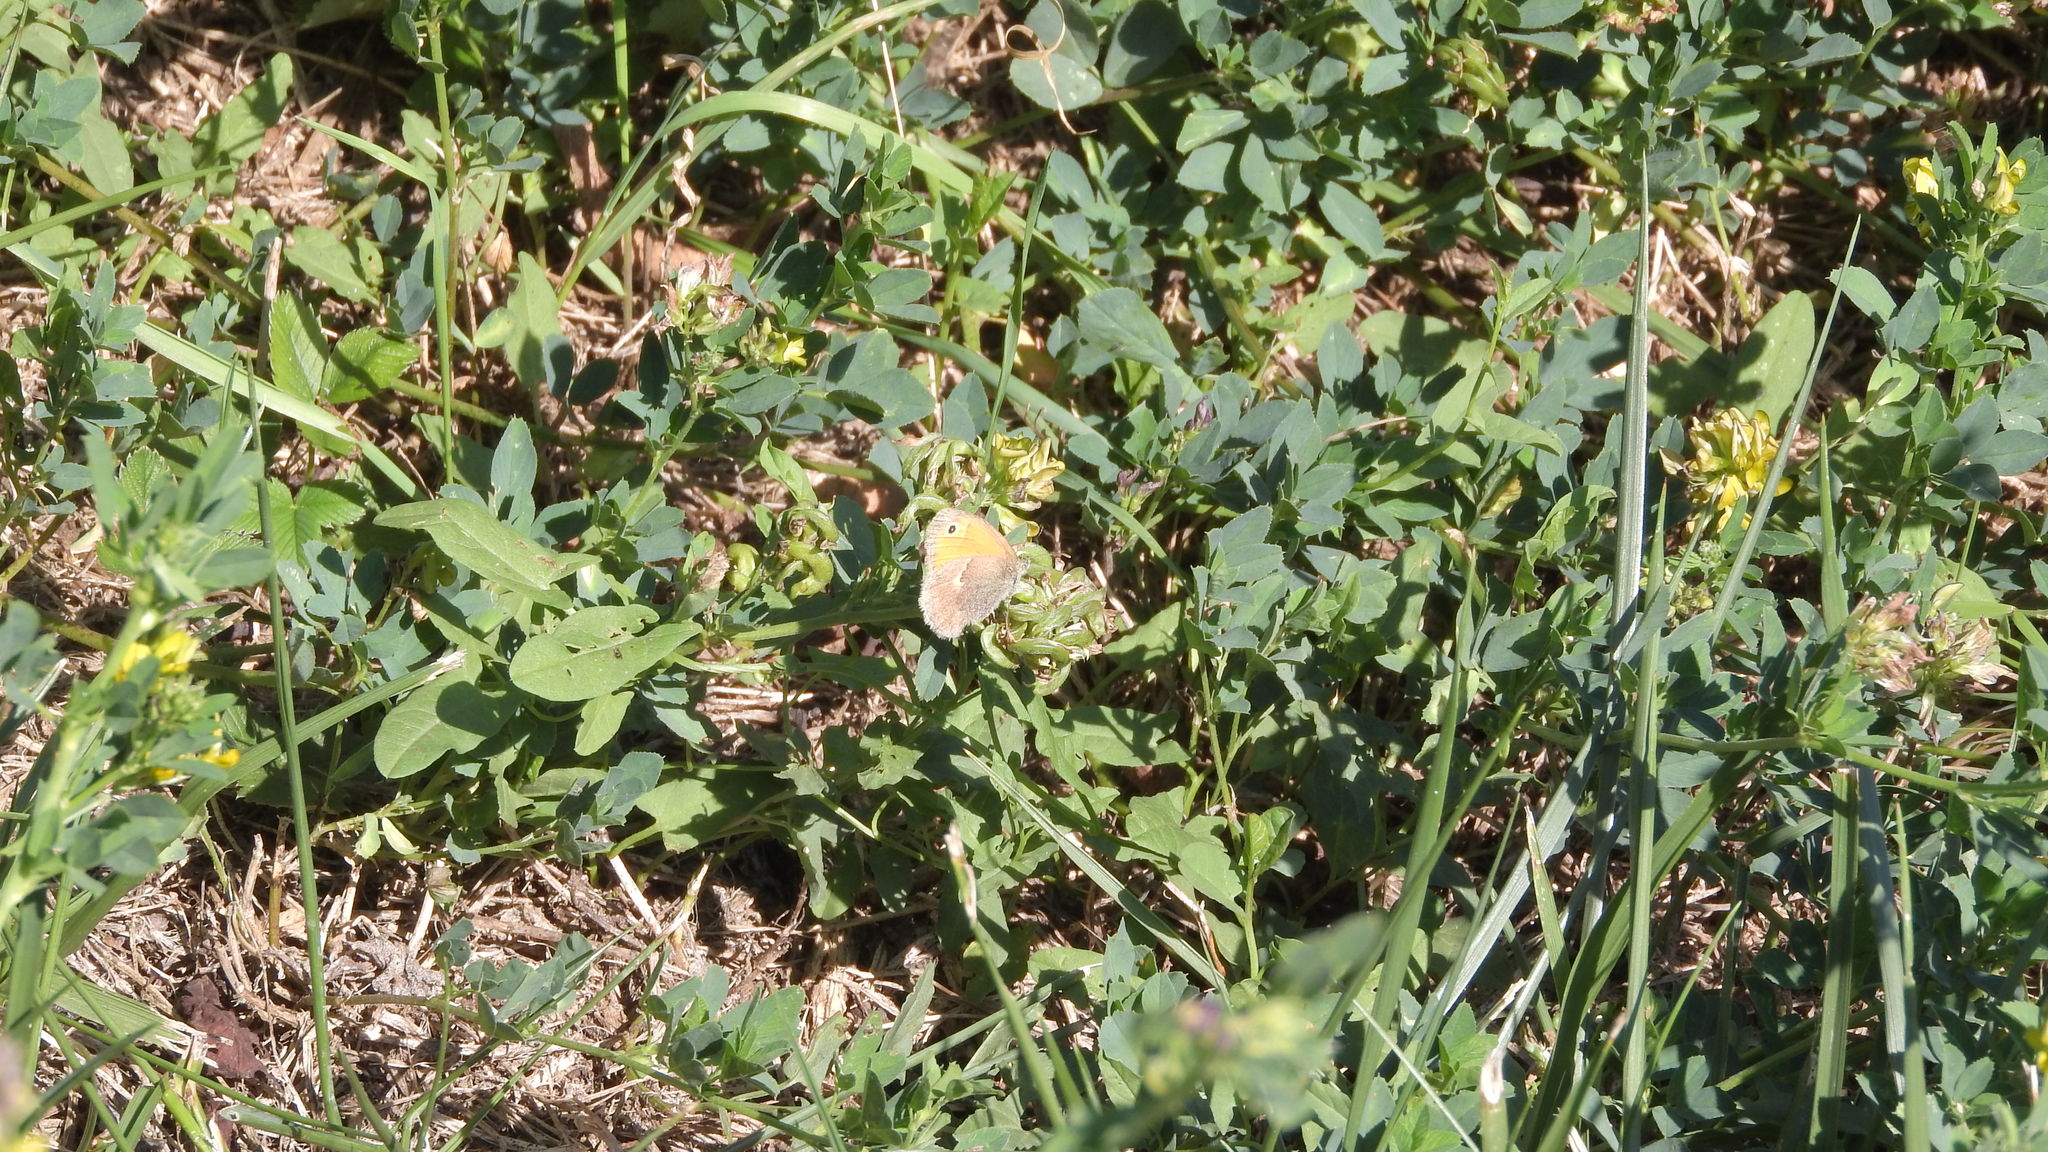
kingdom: Animalia
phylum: Arthropoda
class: Insecta
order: Lepidoptera
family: Nymphalidae
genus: Coenonympha
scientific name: Coenonympha pamphilus
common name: Small heath
